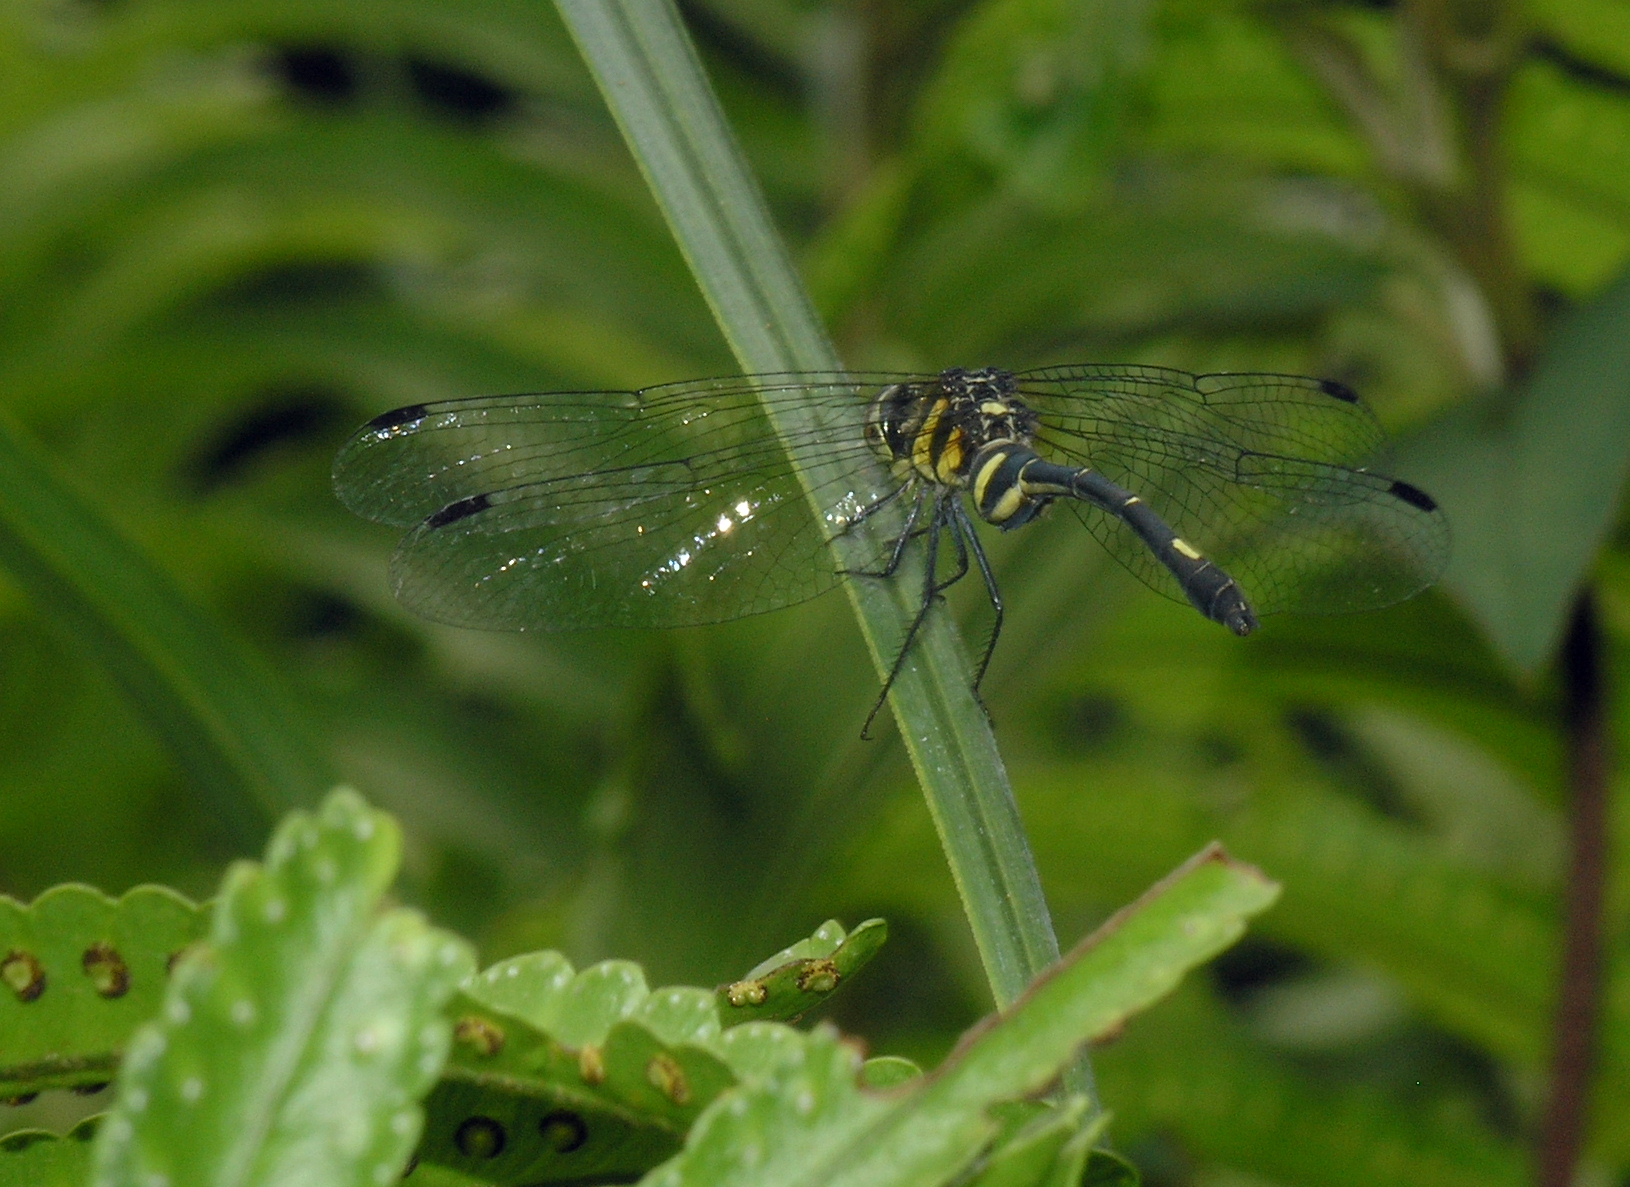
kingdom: Animalia
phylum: Arthropoda
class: Insecta
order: Odonata
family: Libellulidae
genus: Risiophlebia
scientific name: Risiophlebia guentheri
